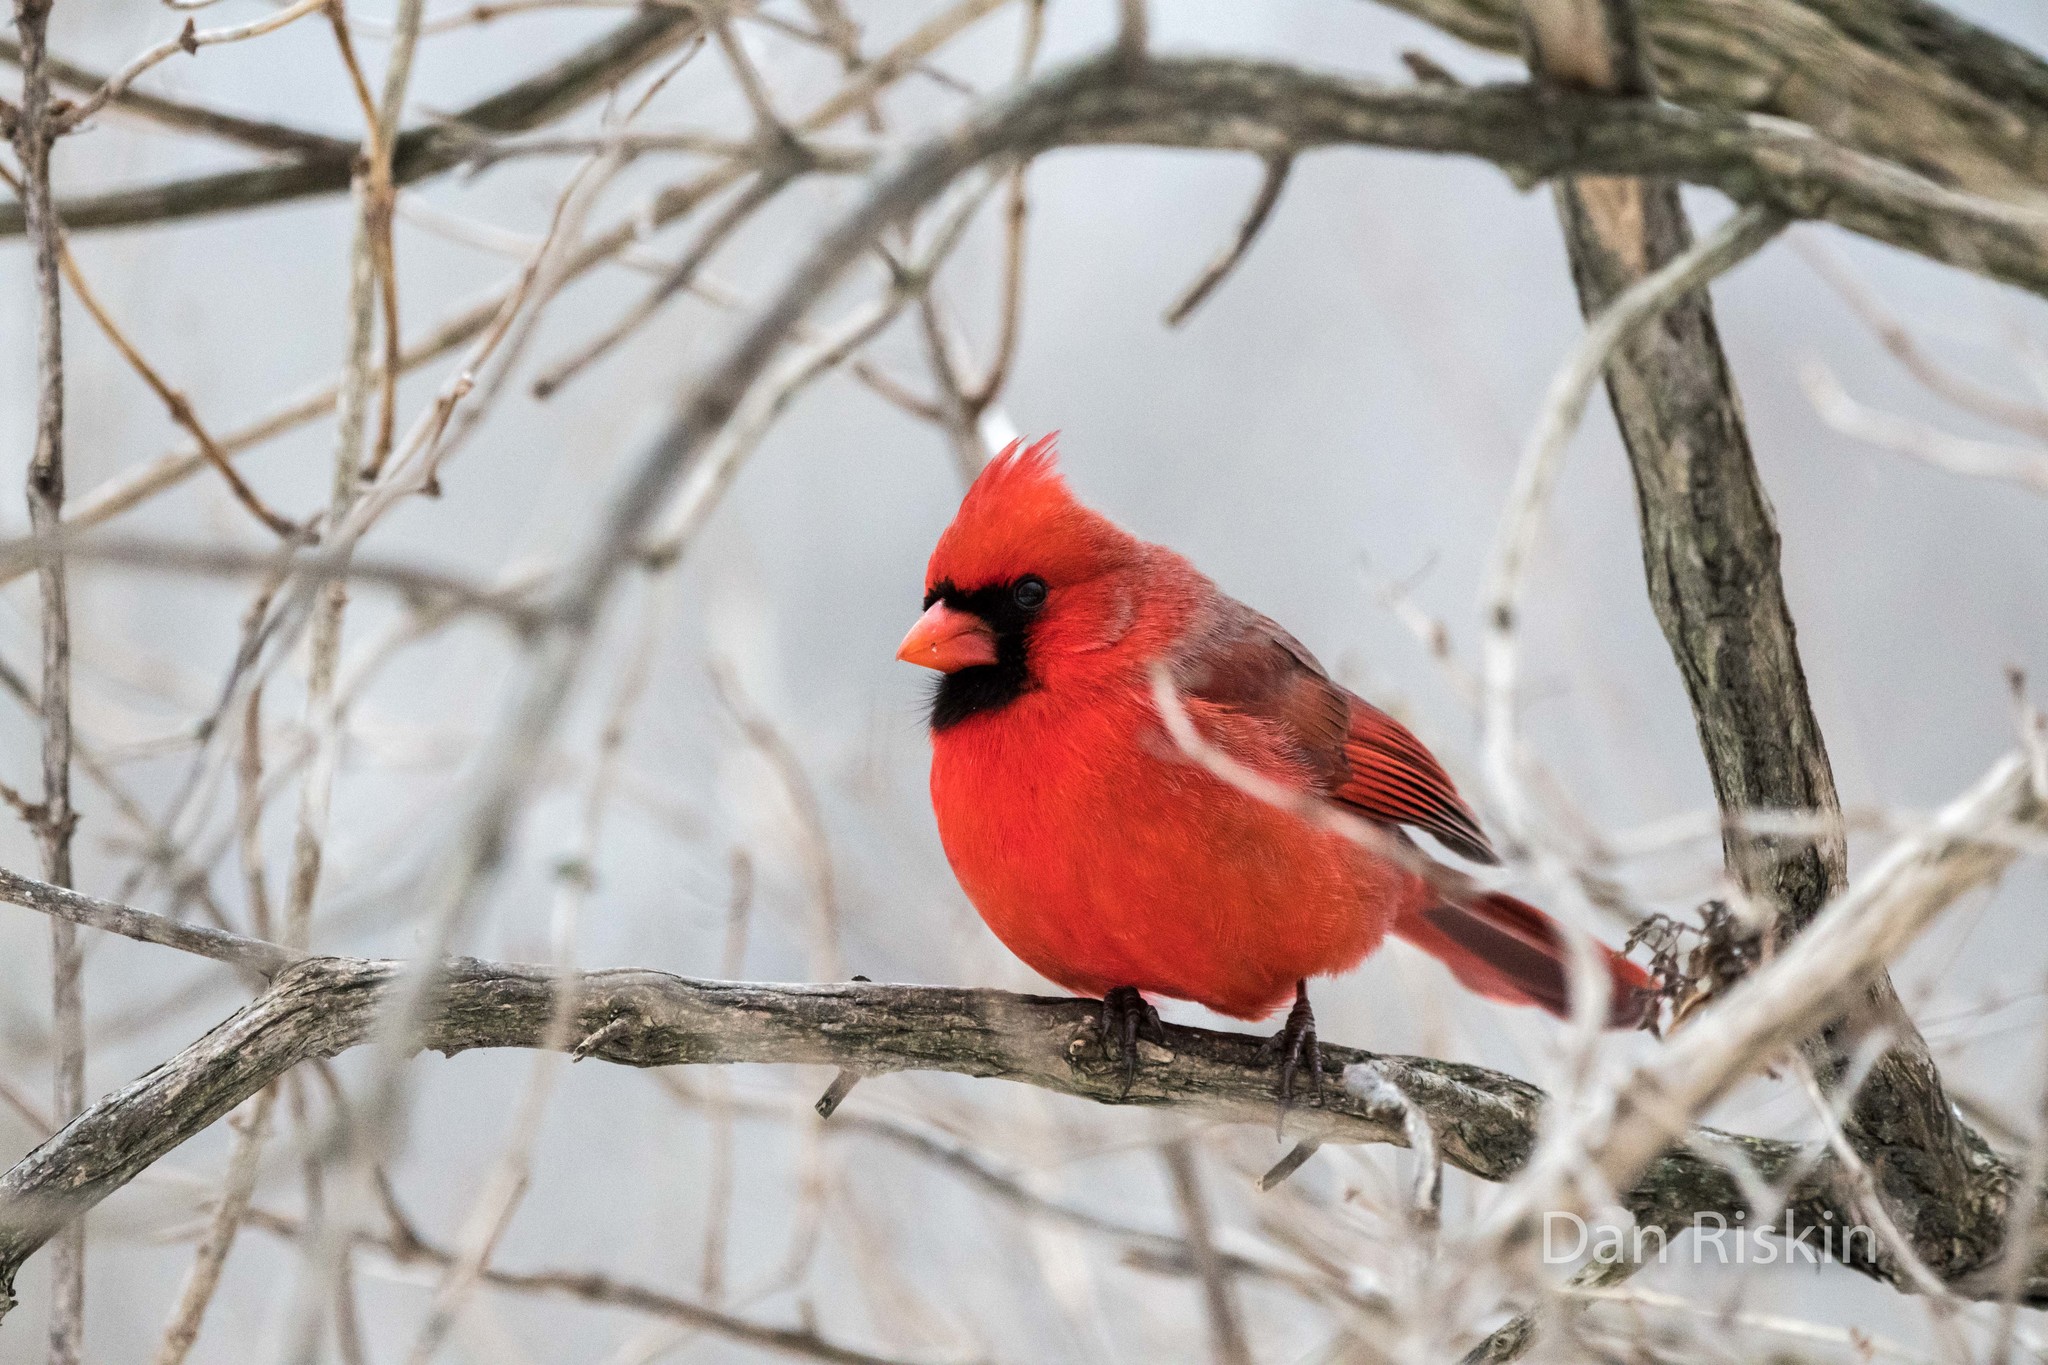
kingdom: Animalia
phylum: Chordata
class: Aves
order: Passeriformes
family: Cardinalidae
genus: Cardinalis
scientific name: Cardinalis cardinalis
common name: Northern cardinal
